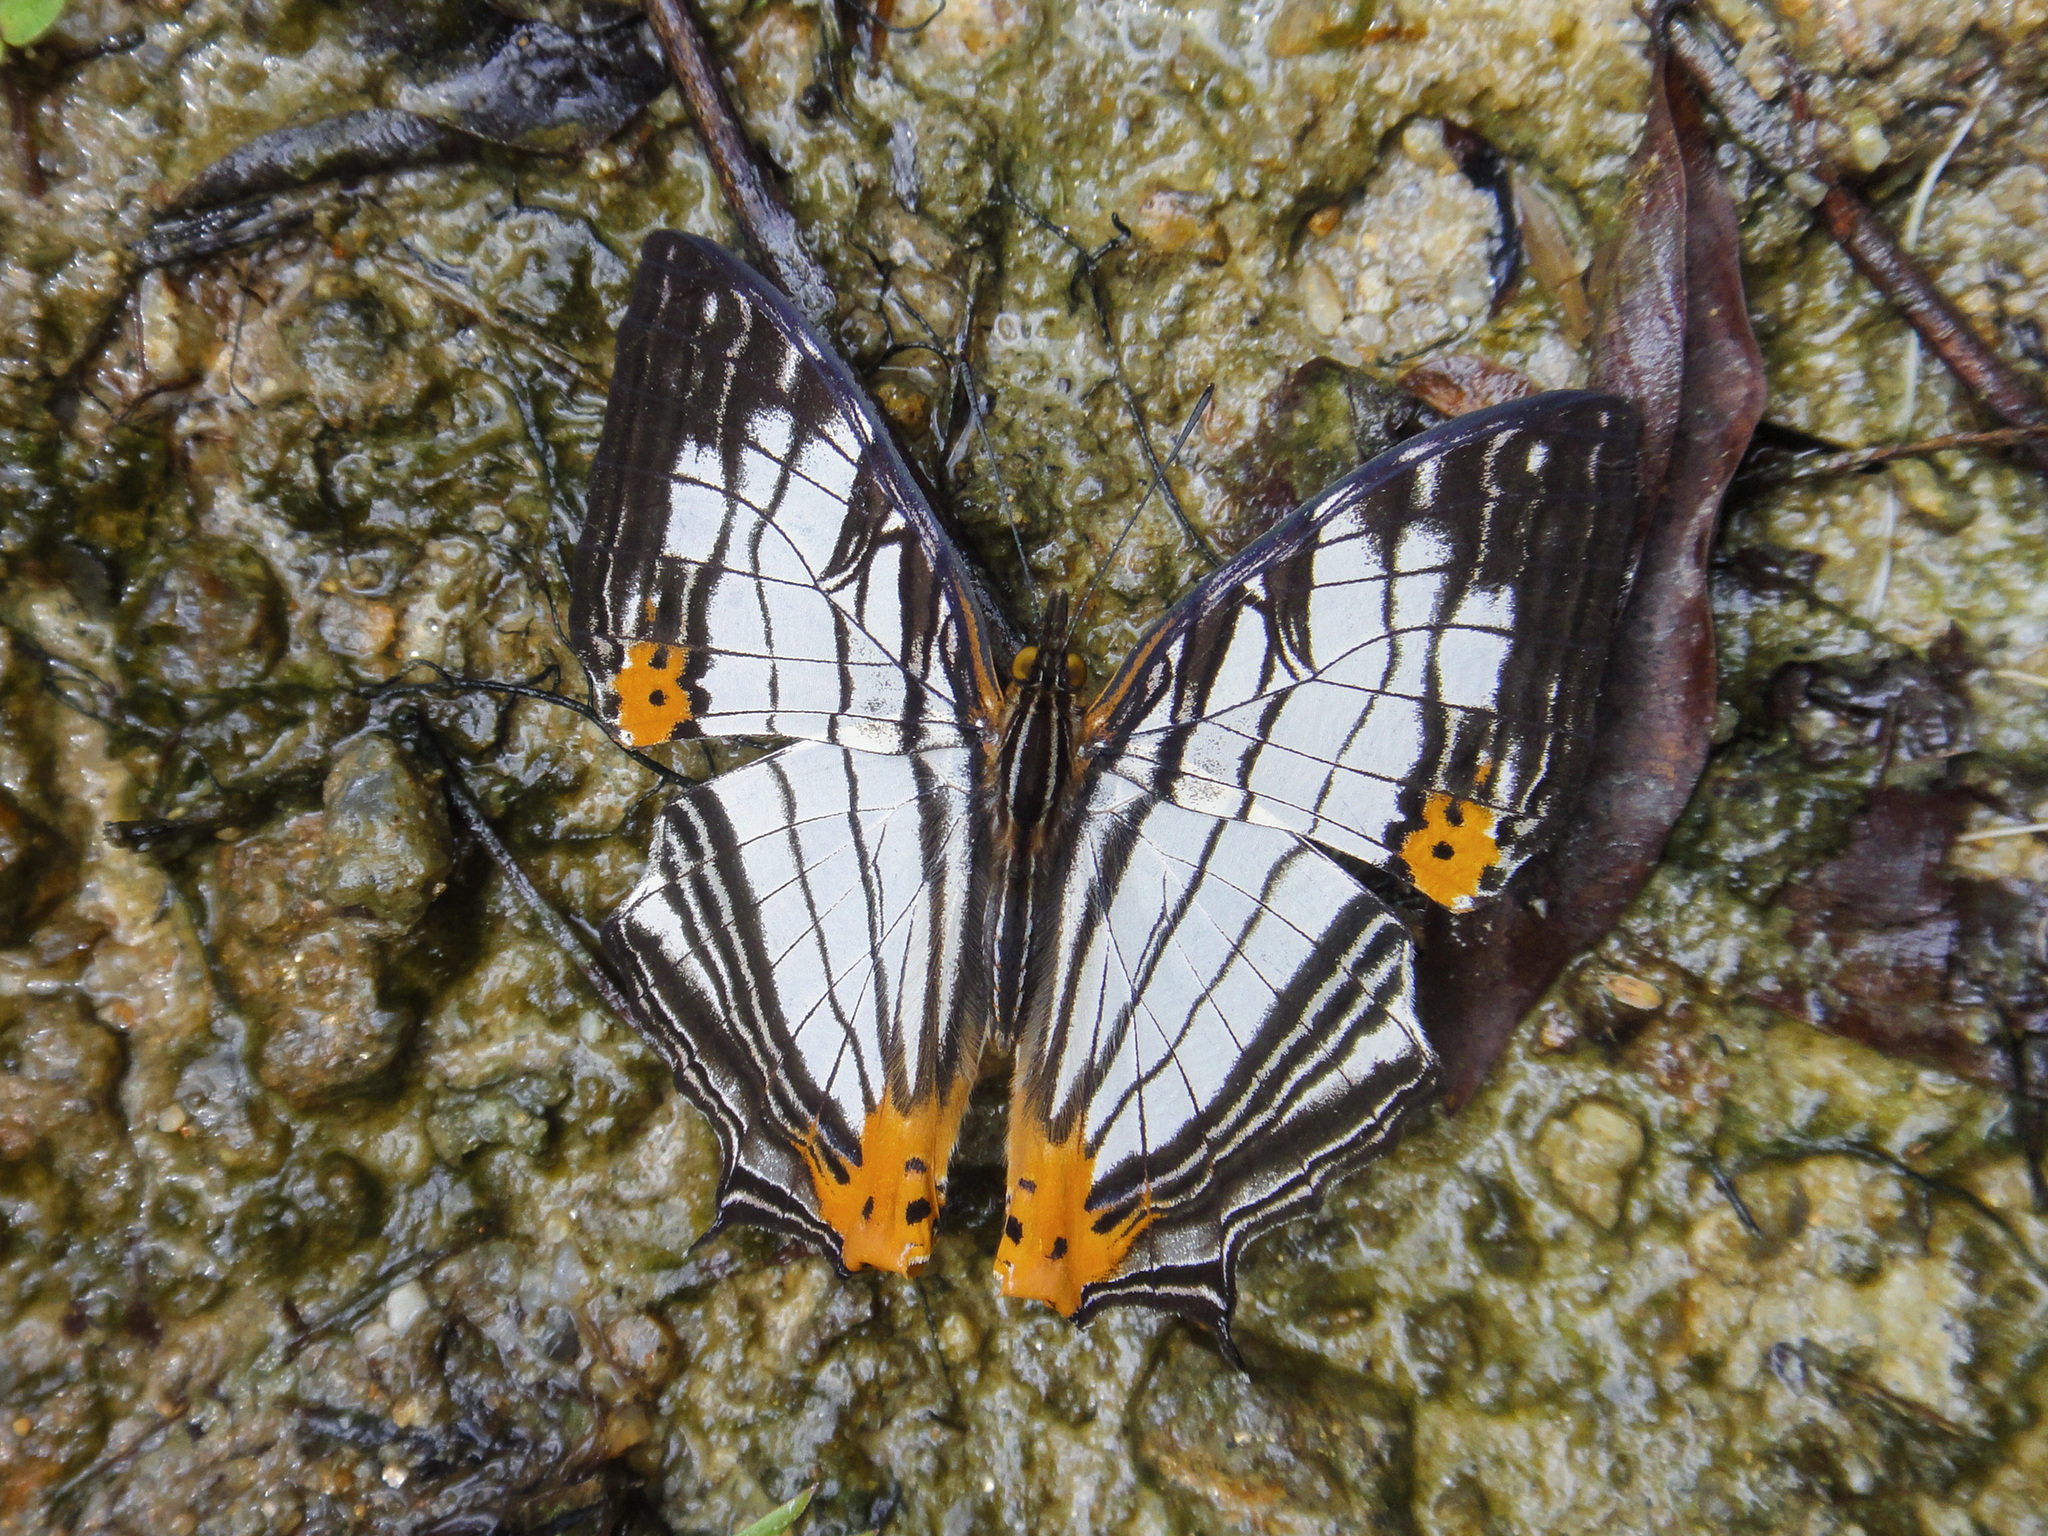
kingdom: Animalia
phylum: Arthropoda
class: Insecta
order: Lepidoptera
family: Nymphalidae
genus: Cyrestis
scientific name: Cyrestis maenalis
